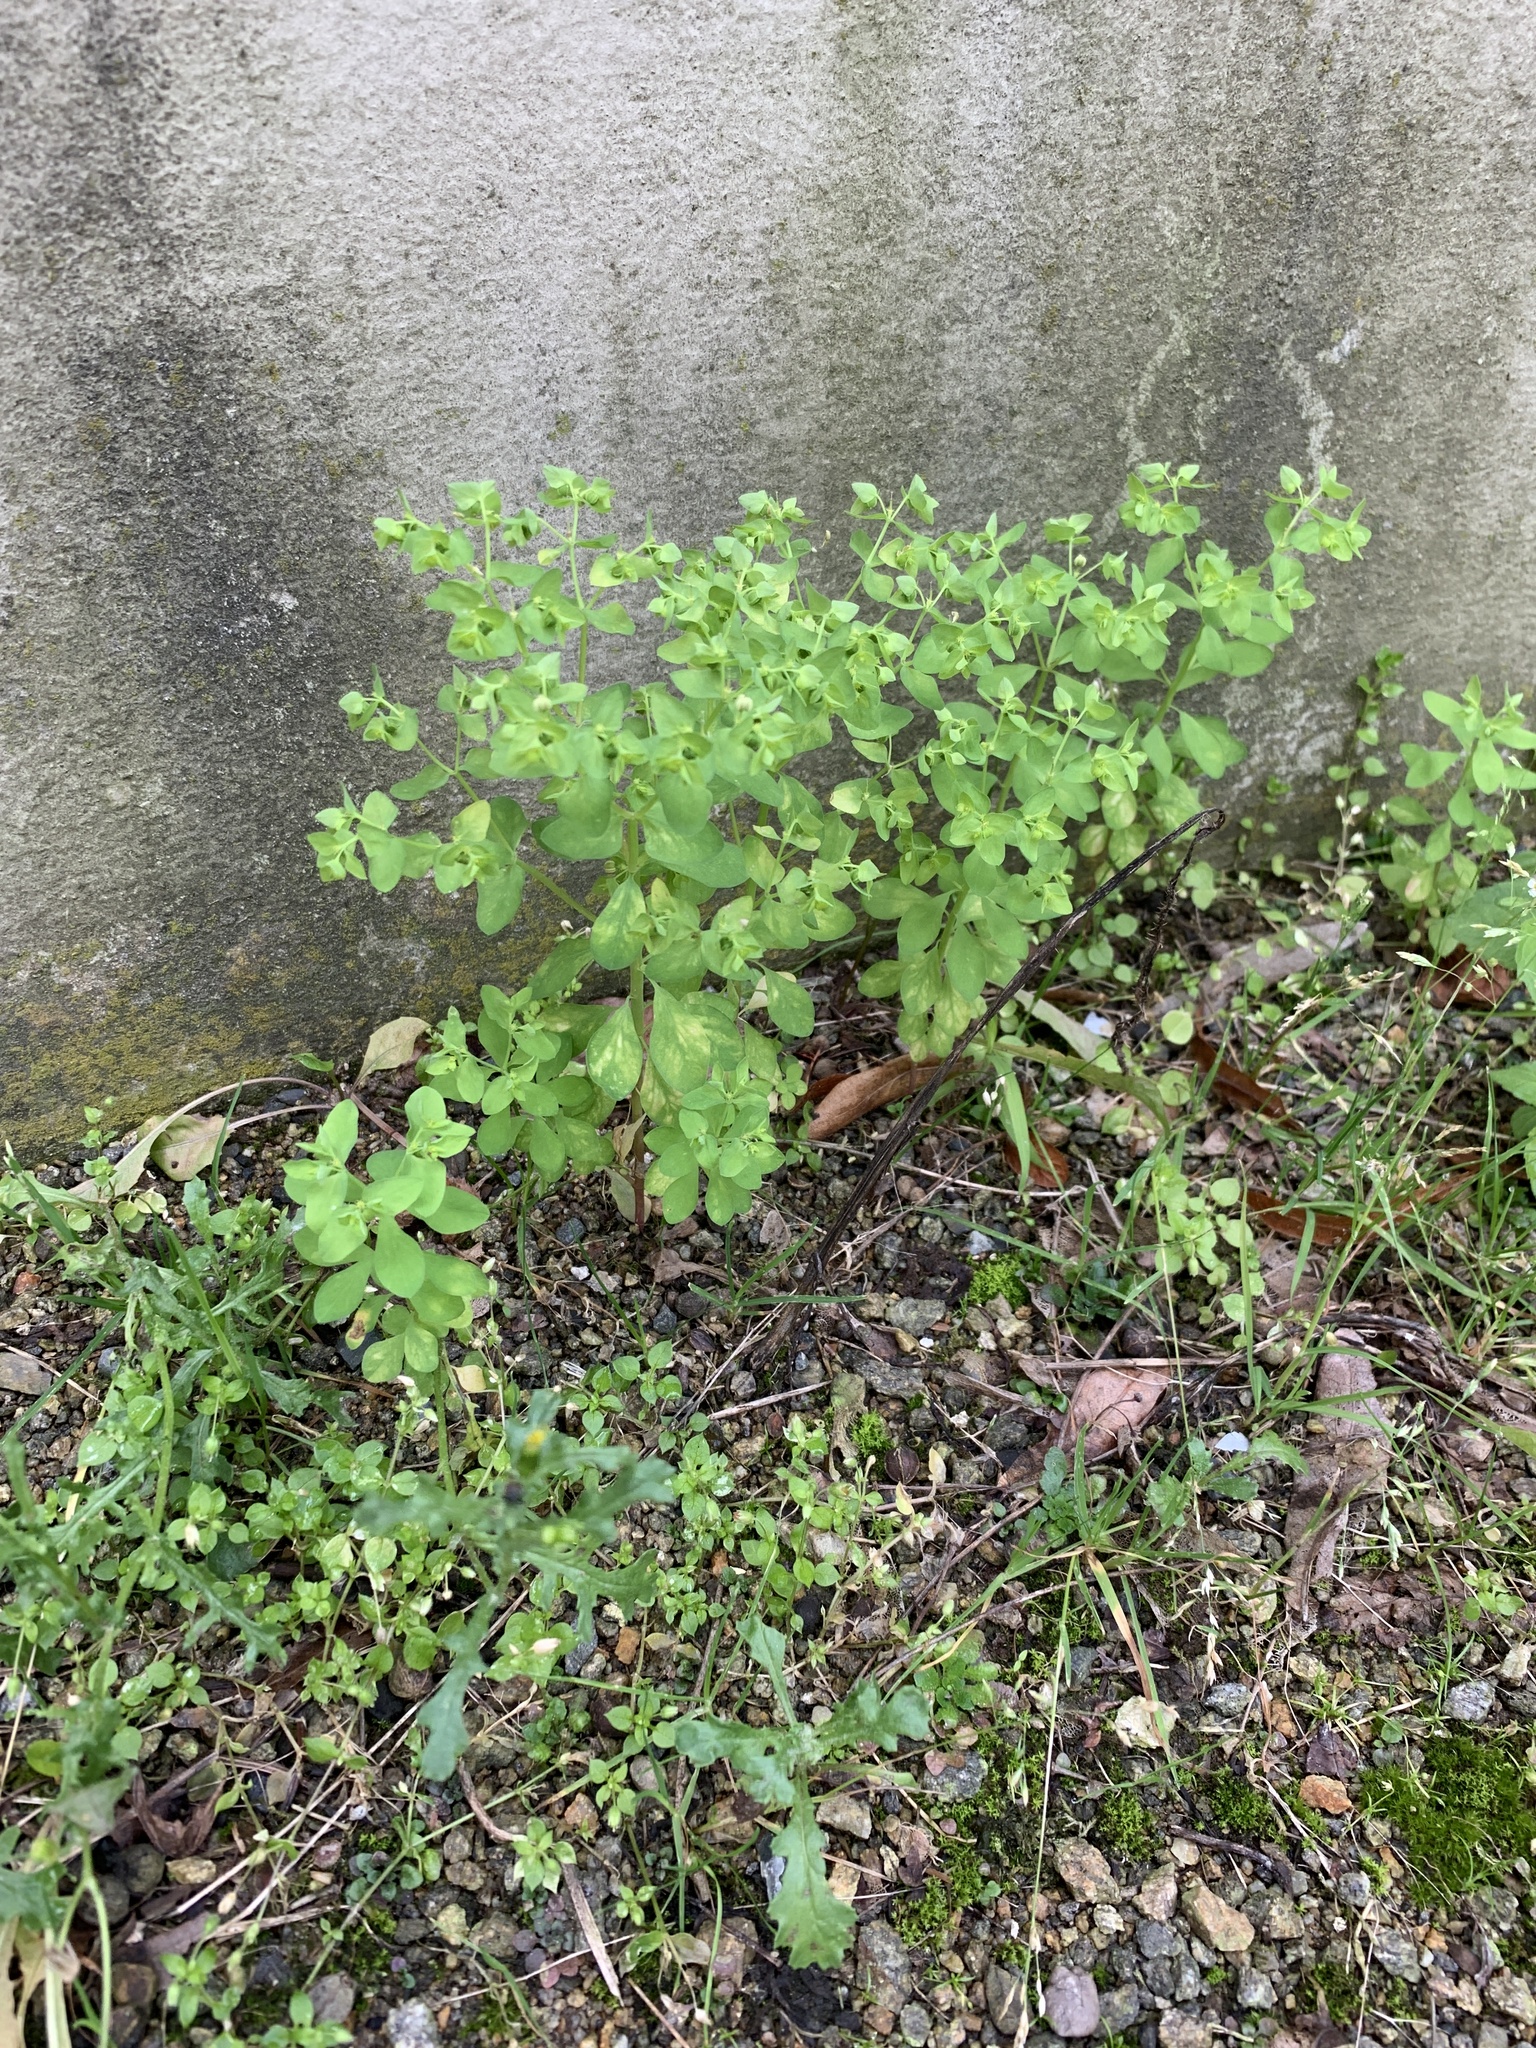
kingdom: Plantae
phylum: Tracheophyta
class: Magnoliopsida
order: Malpighiales
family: Euphorbiaceae
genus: Euphorbia
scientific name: Euphorbia peplus
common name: Petty spurge
